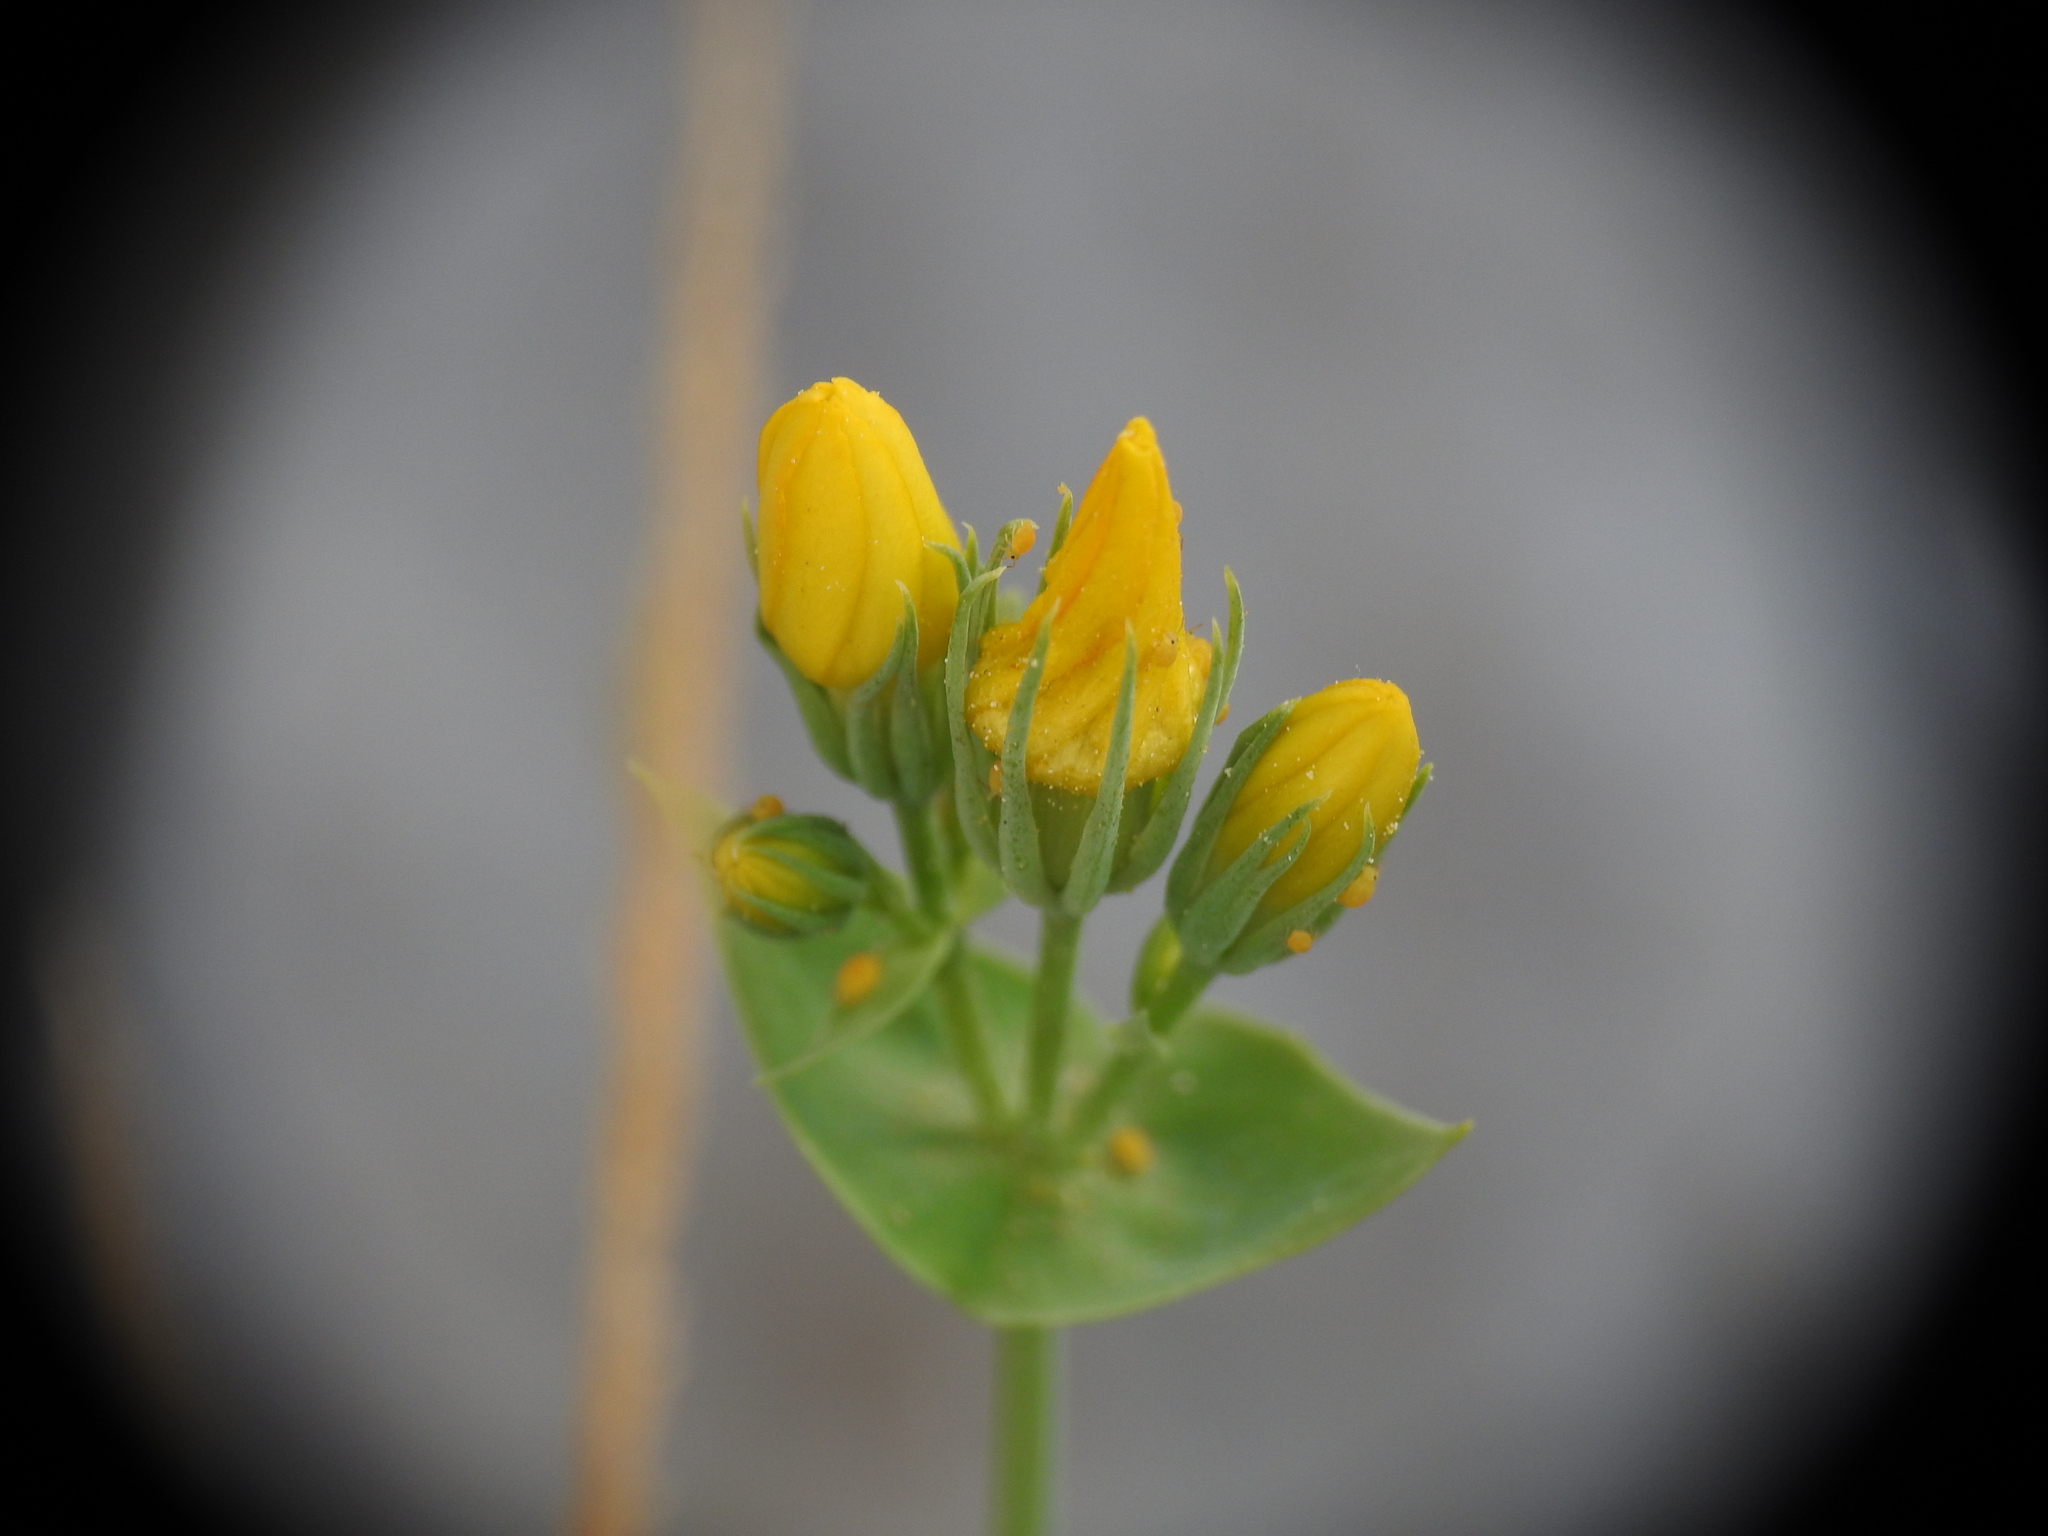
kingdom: Plantae
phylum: Tracheophyta
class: Magnoliopsida
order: Gentianales
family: Gentianaceae
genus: Blackstonia
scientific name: Blackstonia perfoliata
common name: Yellow-wort
